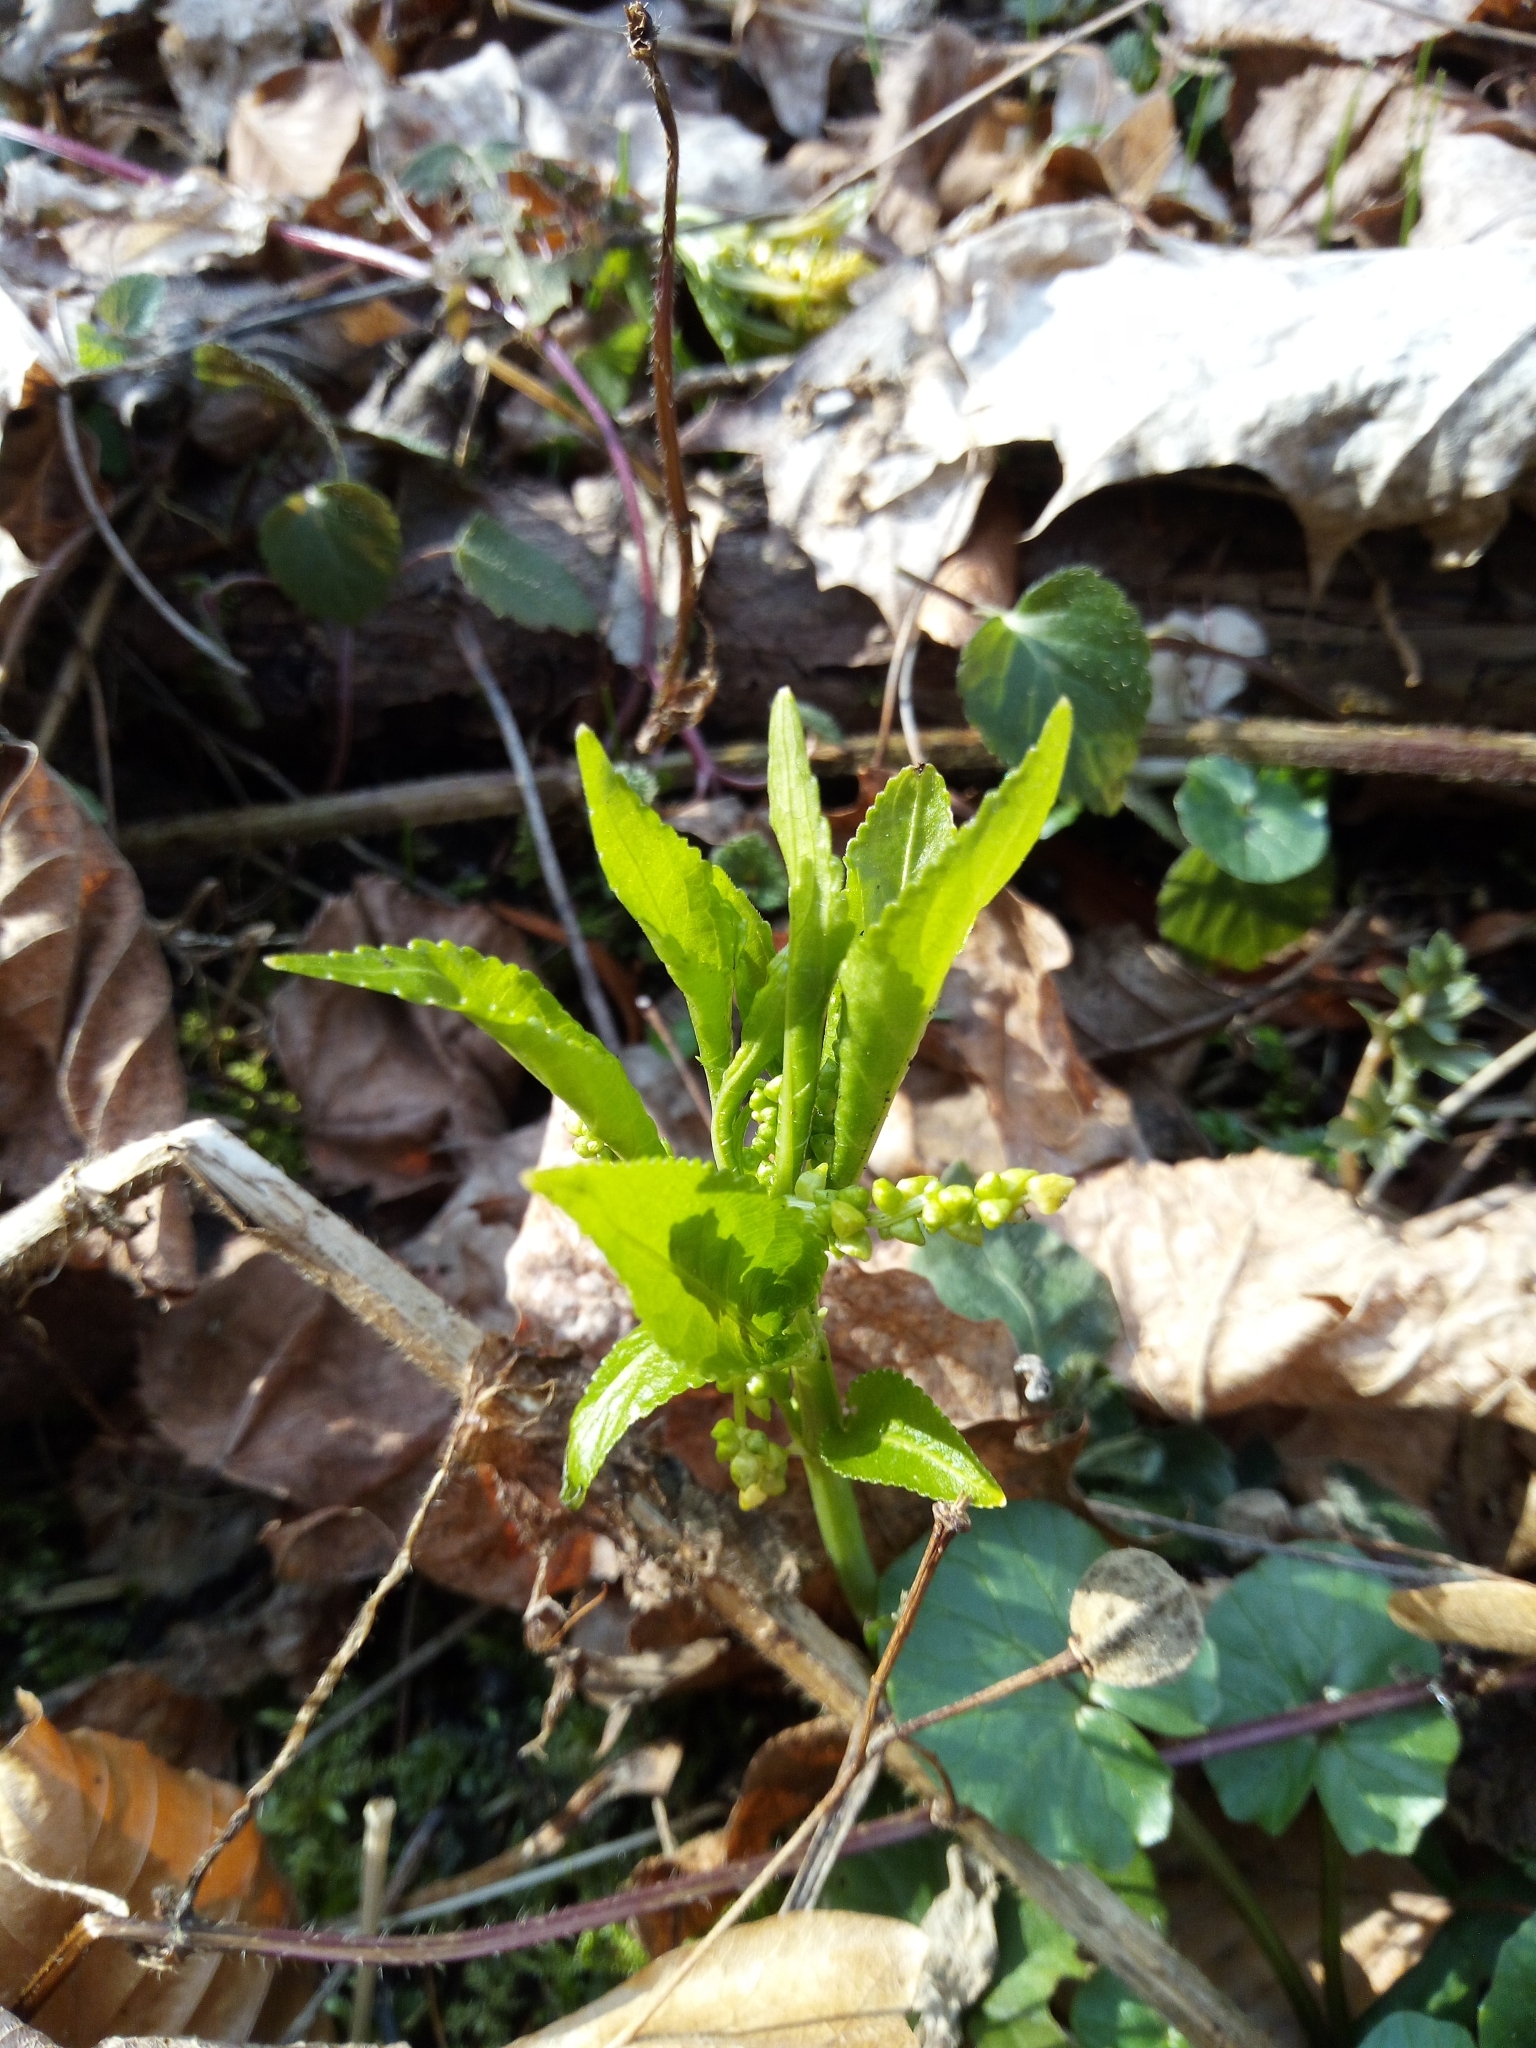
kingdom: Plantae
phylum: Tracheophyta
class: Magnoliopsida
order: Malpighiales
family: Euphorbiaceae
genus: Mercurialis
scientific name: Mercurialis perennis
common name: Dog mercury
